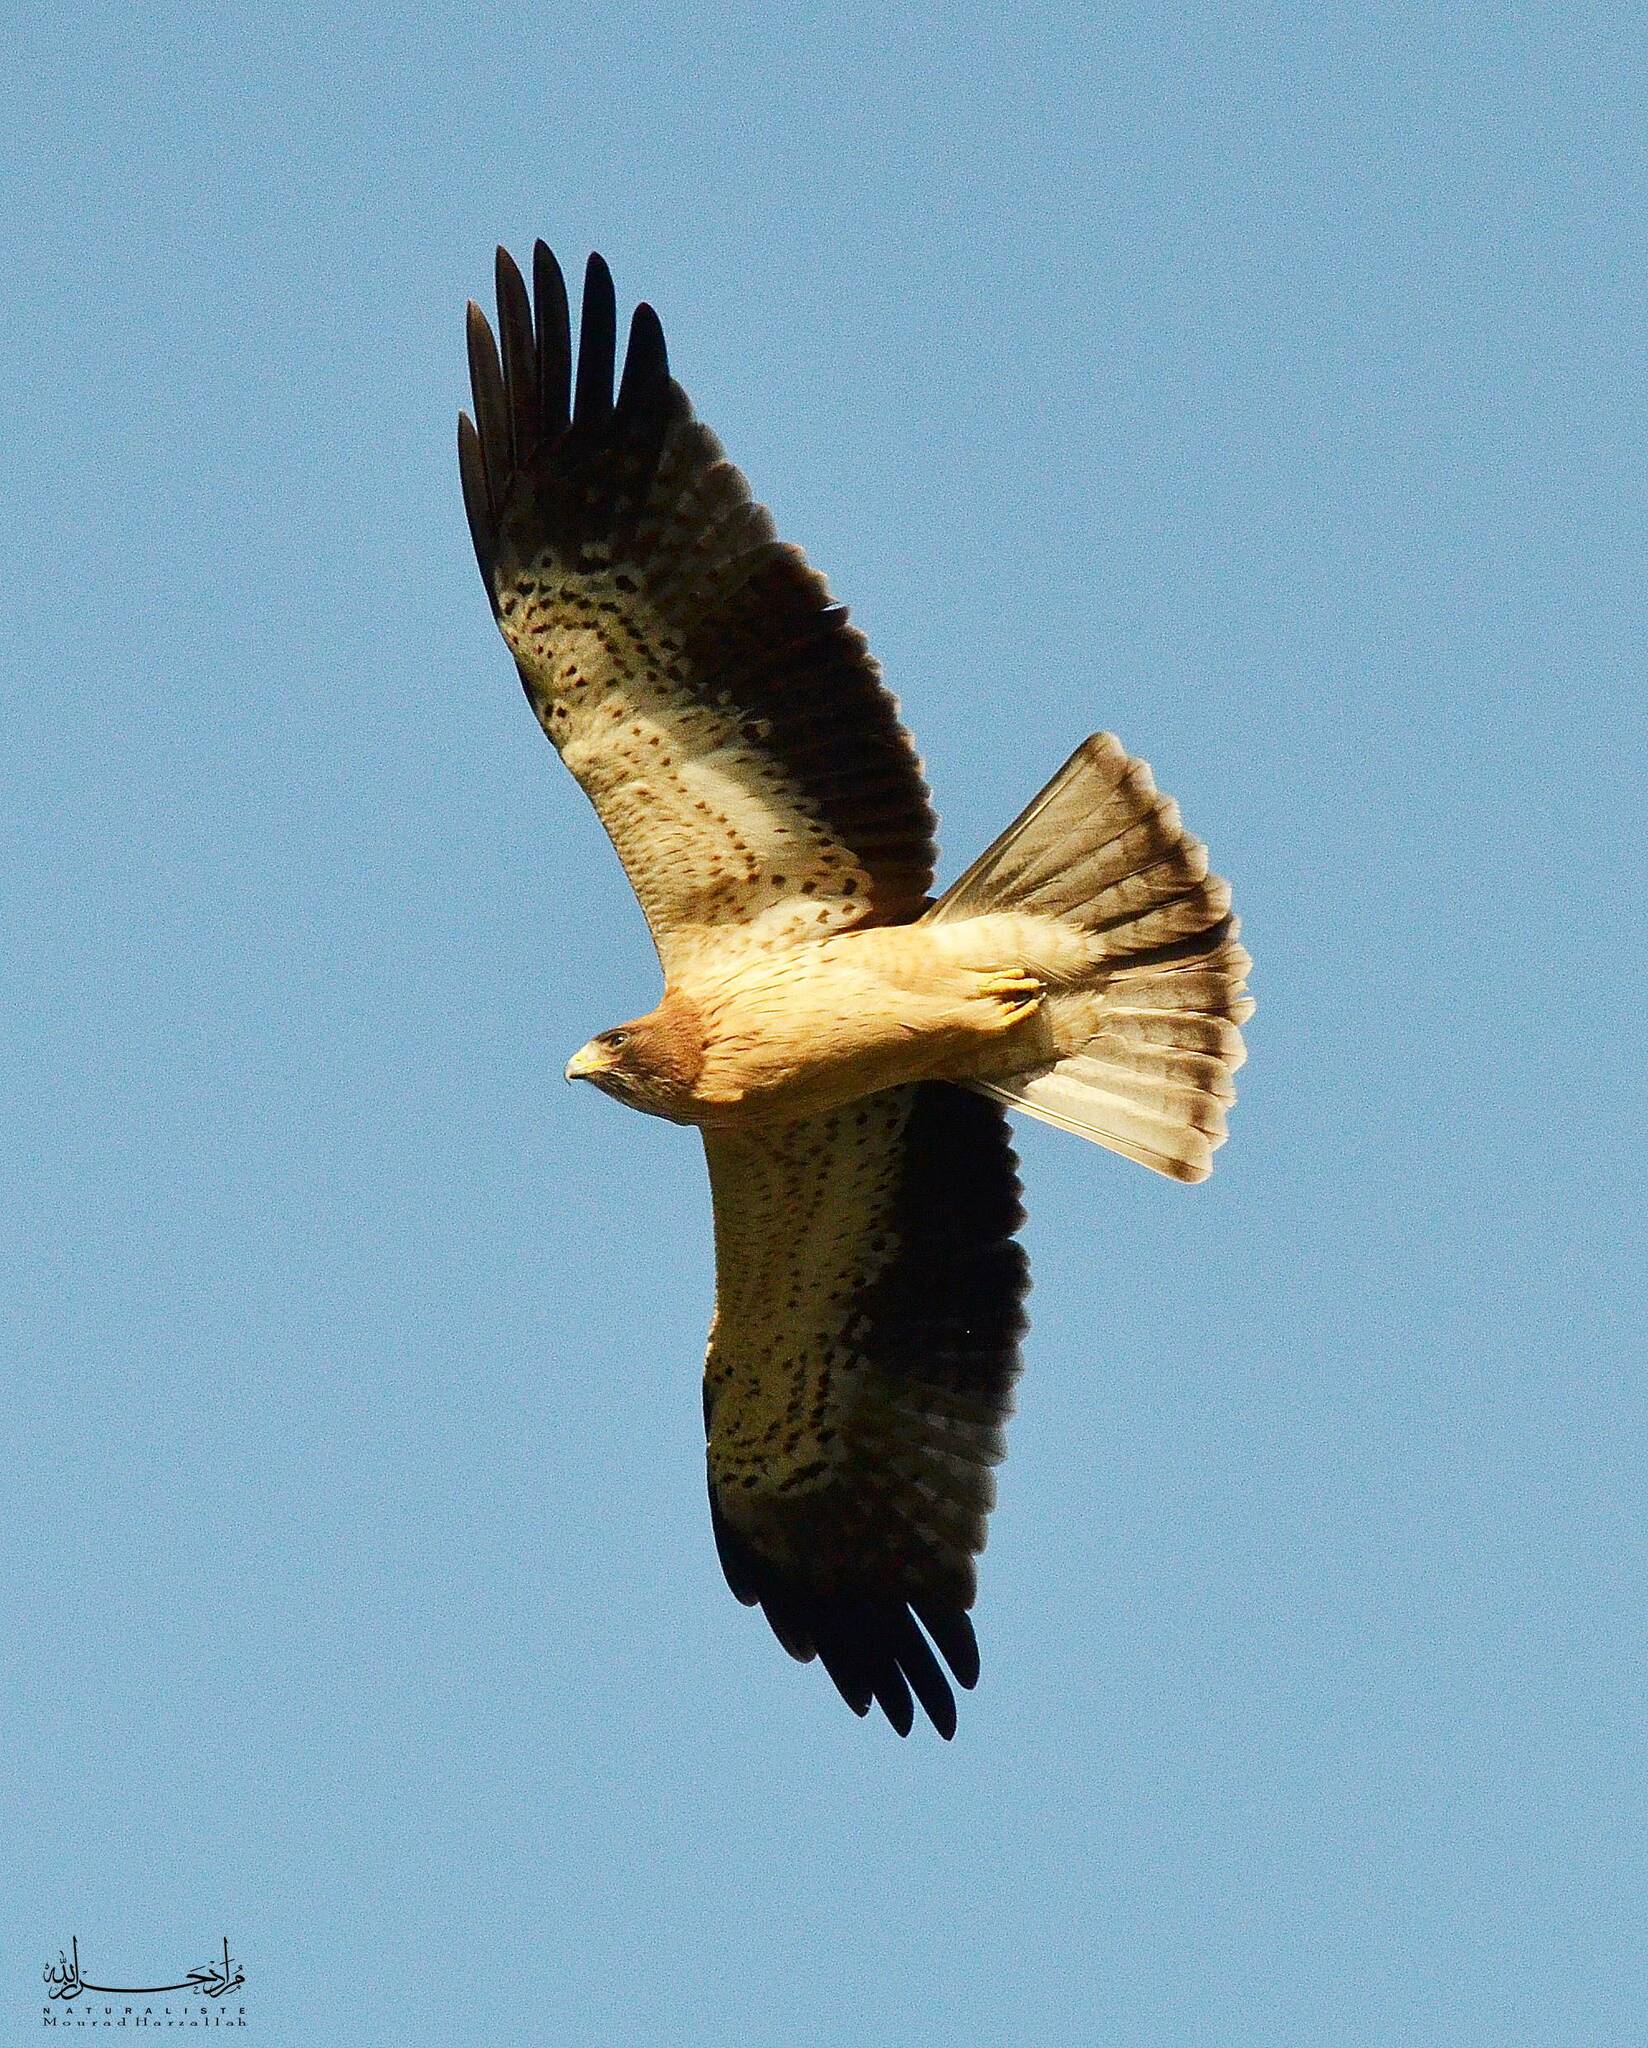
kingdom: Animalia
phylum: Chordata
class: Aves
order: Accipitriformes
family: Accipitridae
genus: Hieraaetus
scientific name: Hieraaetus pennatus
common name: Booted eagle
